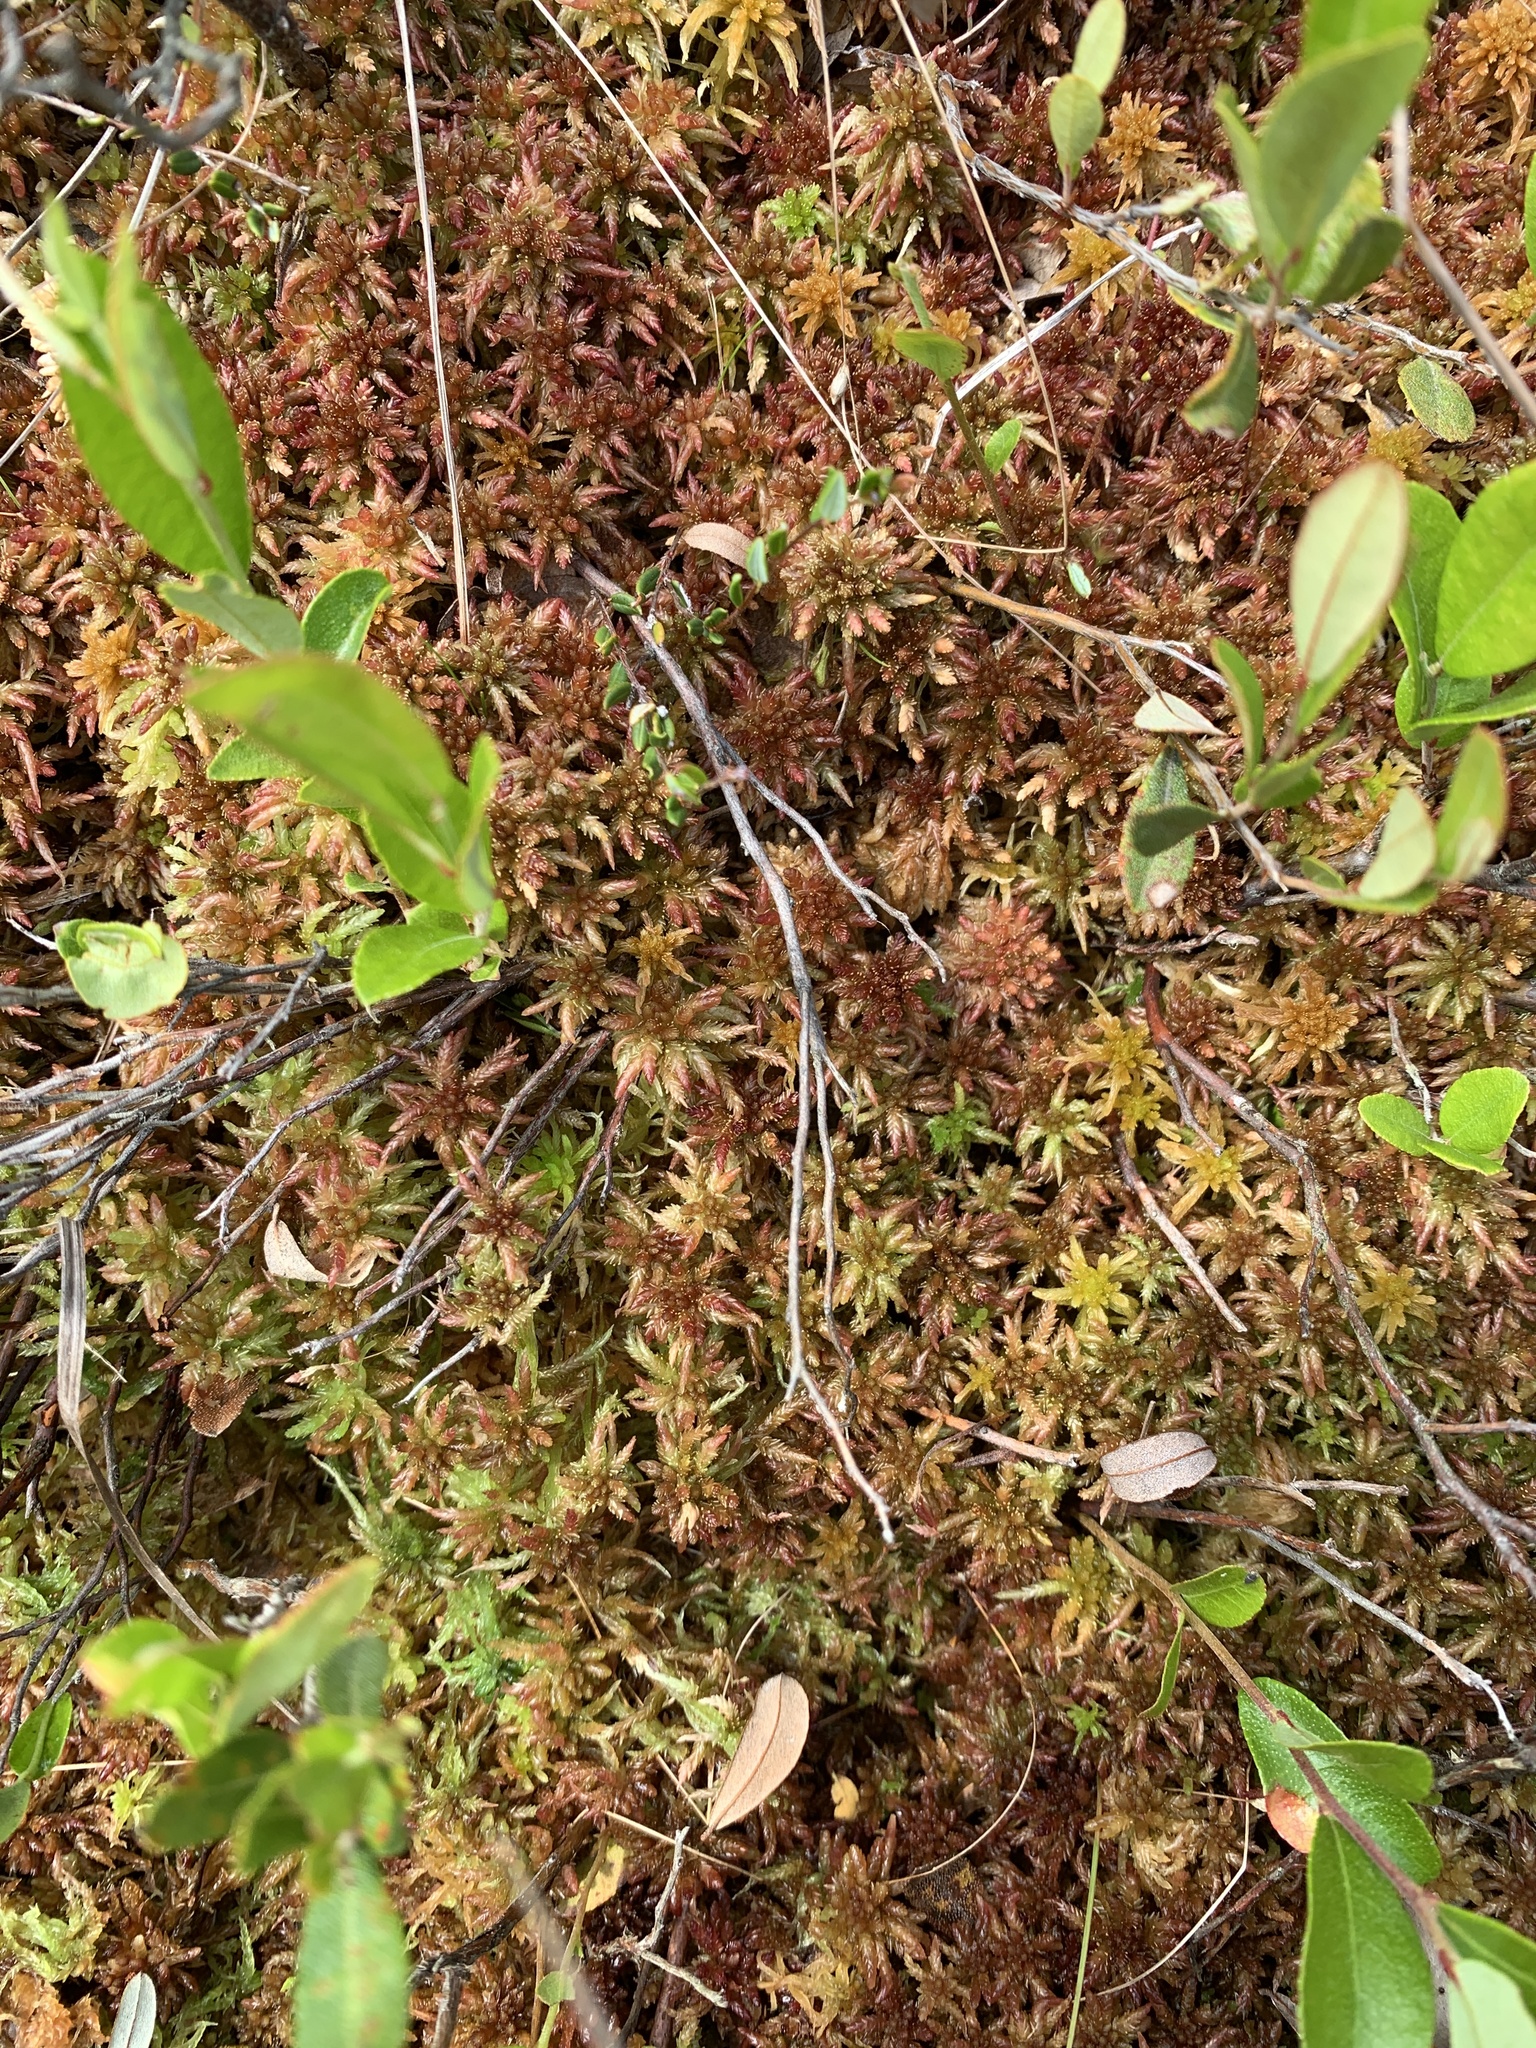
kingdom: Plantae
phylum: Bryophyta
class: Sphagnopsida
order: Sphagnales
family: Sphagnaceae
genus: Sphagnum
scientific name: Sphagnum fallax
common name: Flat-top peat moss
